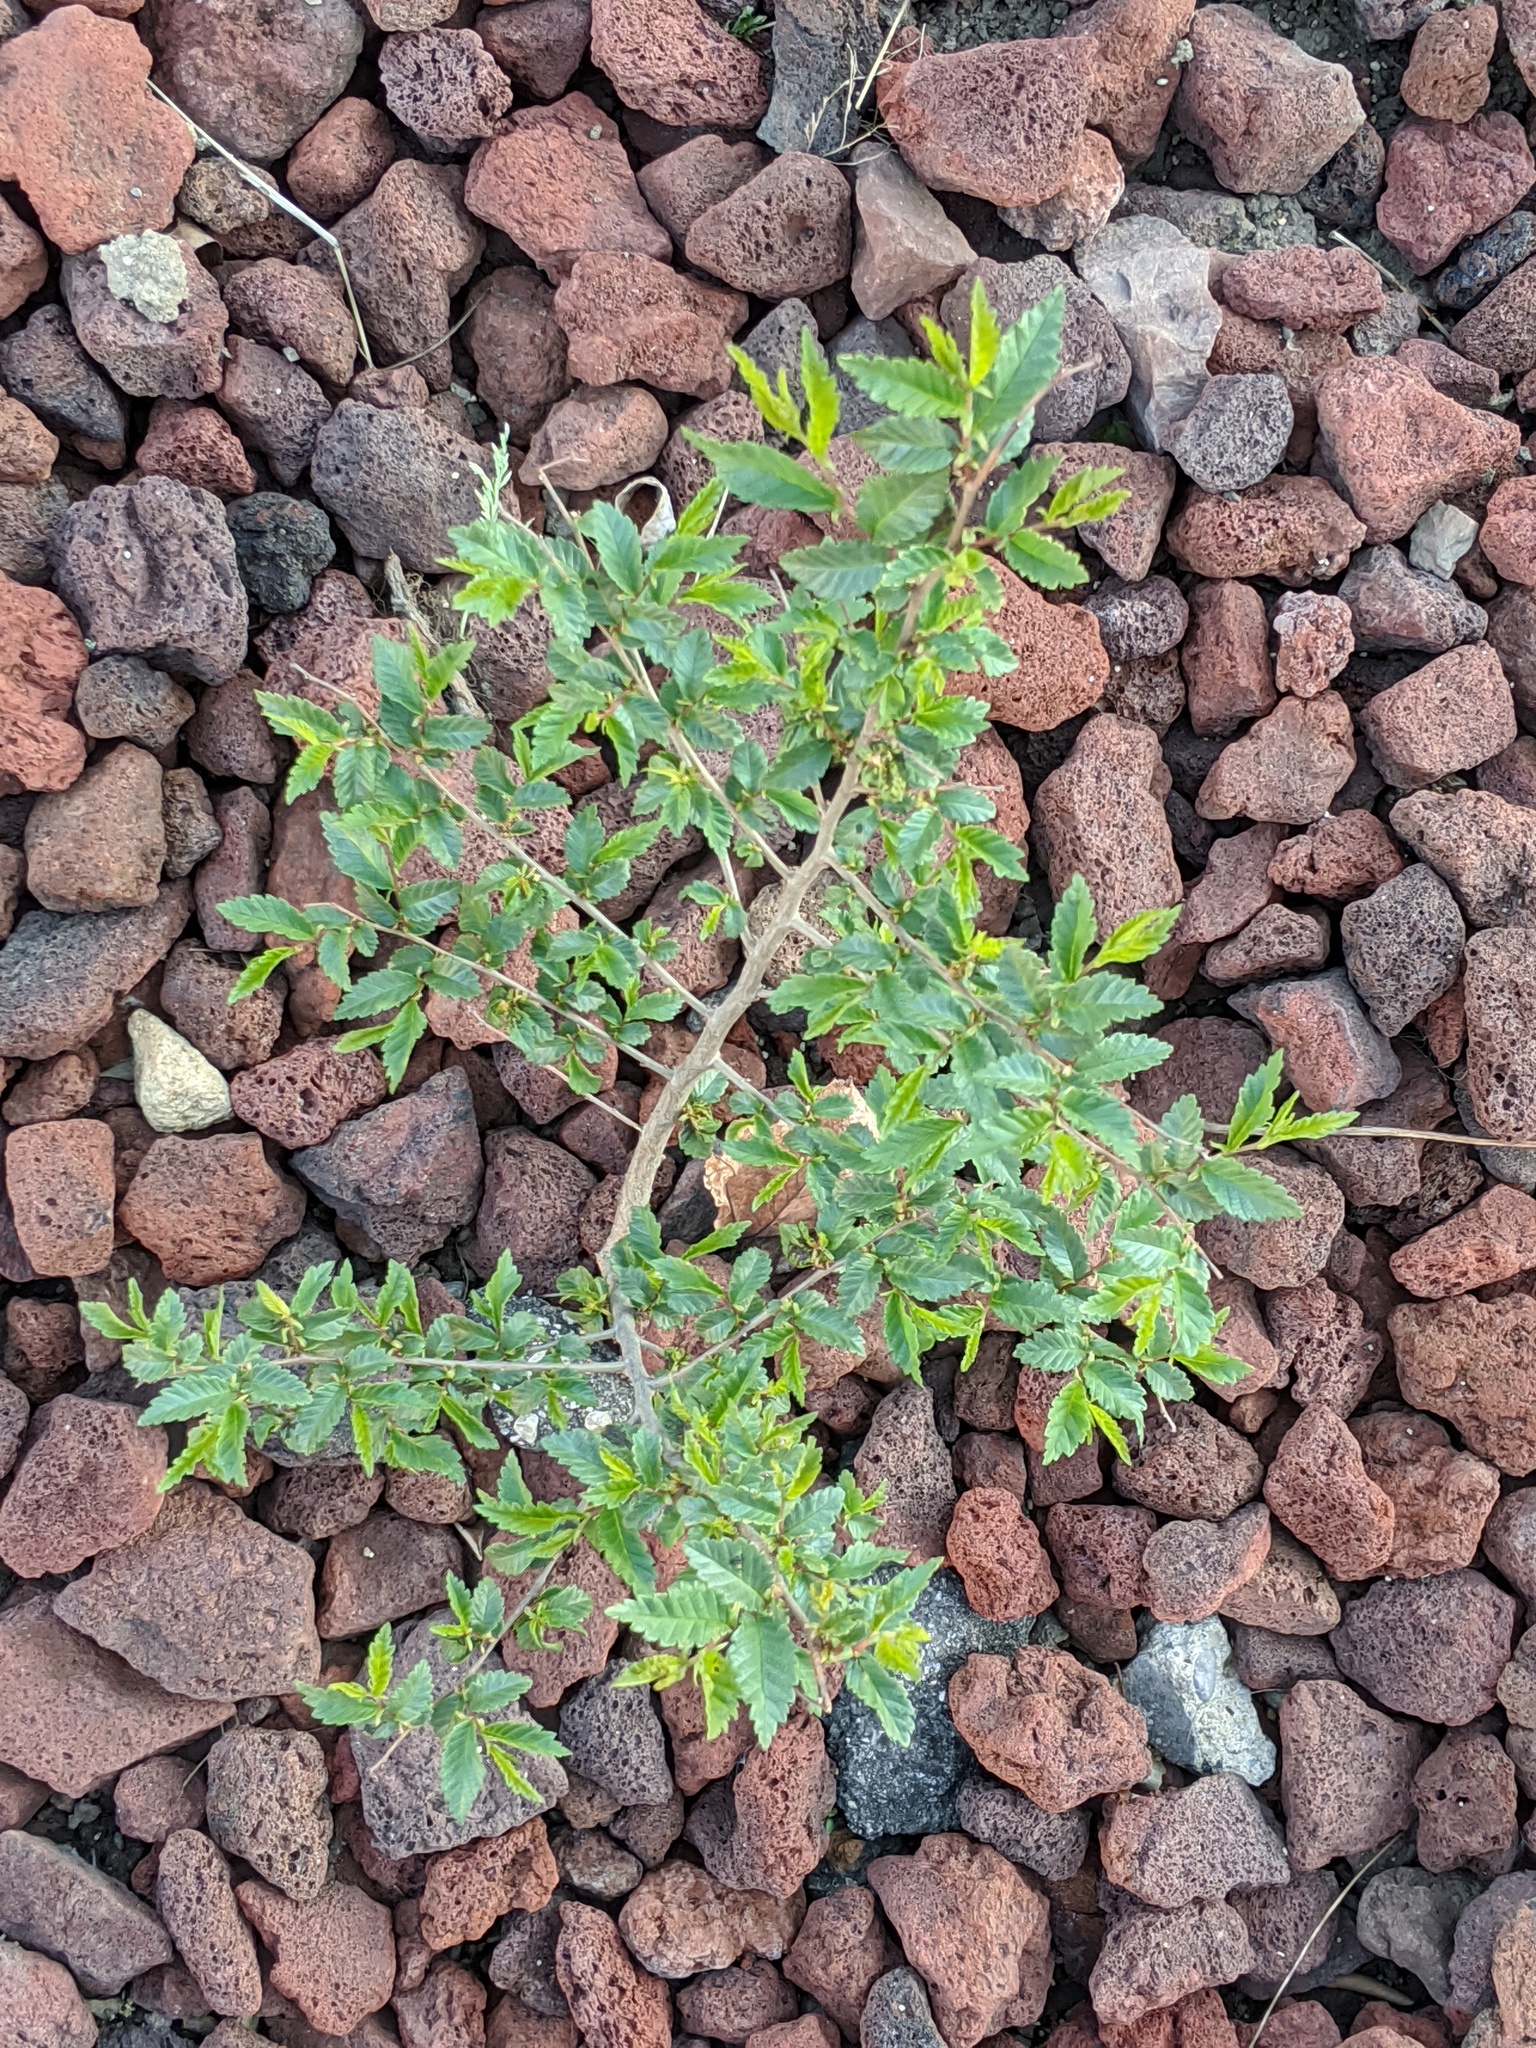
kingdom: Plantae
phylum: Tracheophyta
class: Magnoliopsida
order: Rosales
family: Ulmaceae
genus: Ulmus
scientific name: Ulmus pumila
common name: Siberian elm
